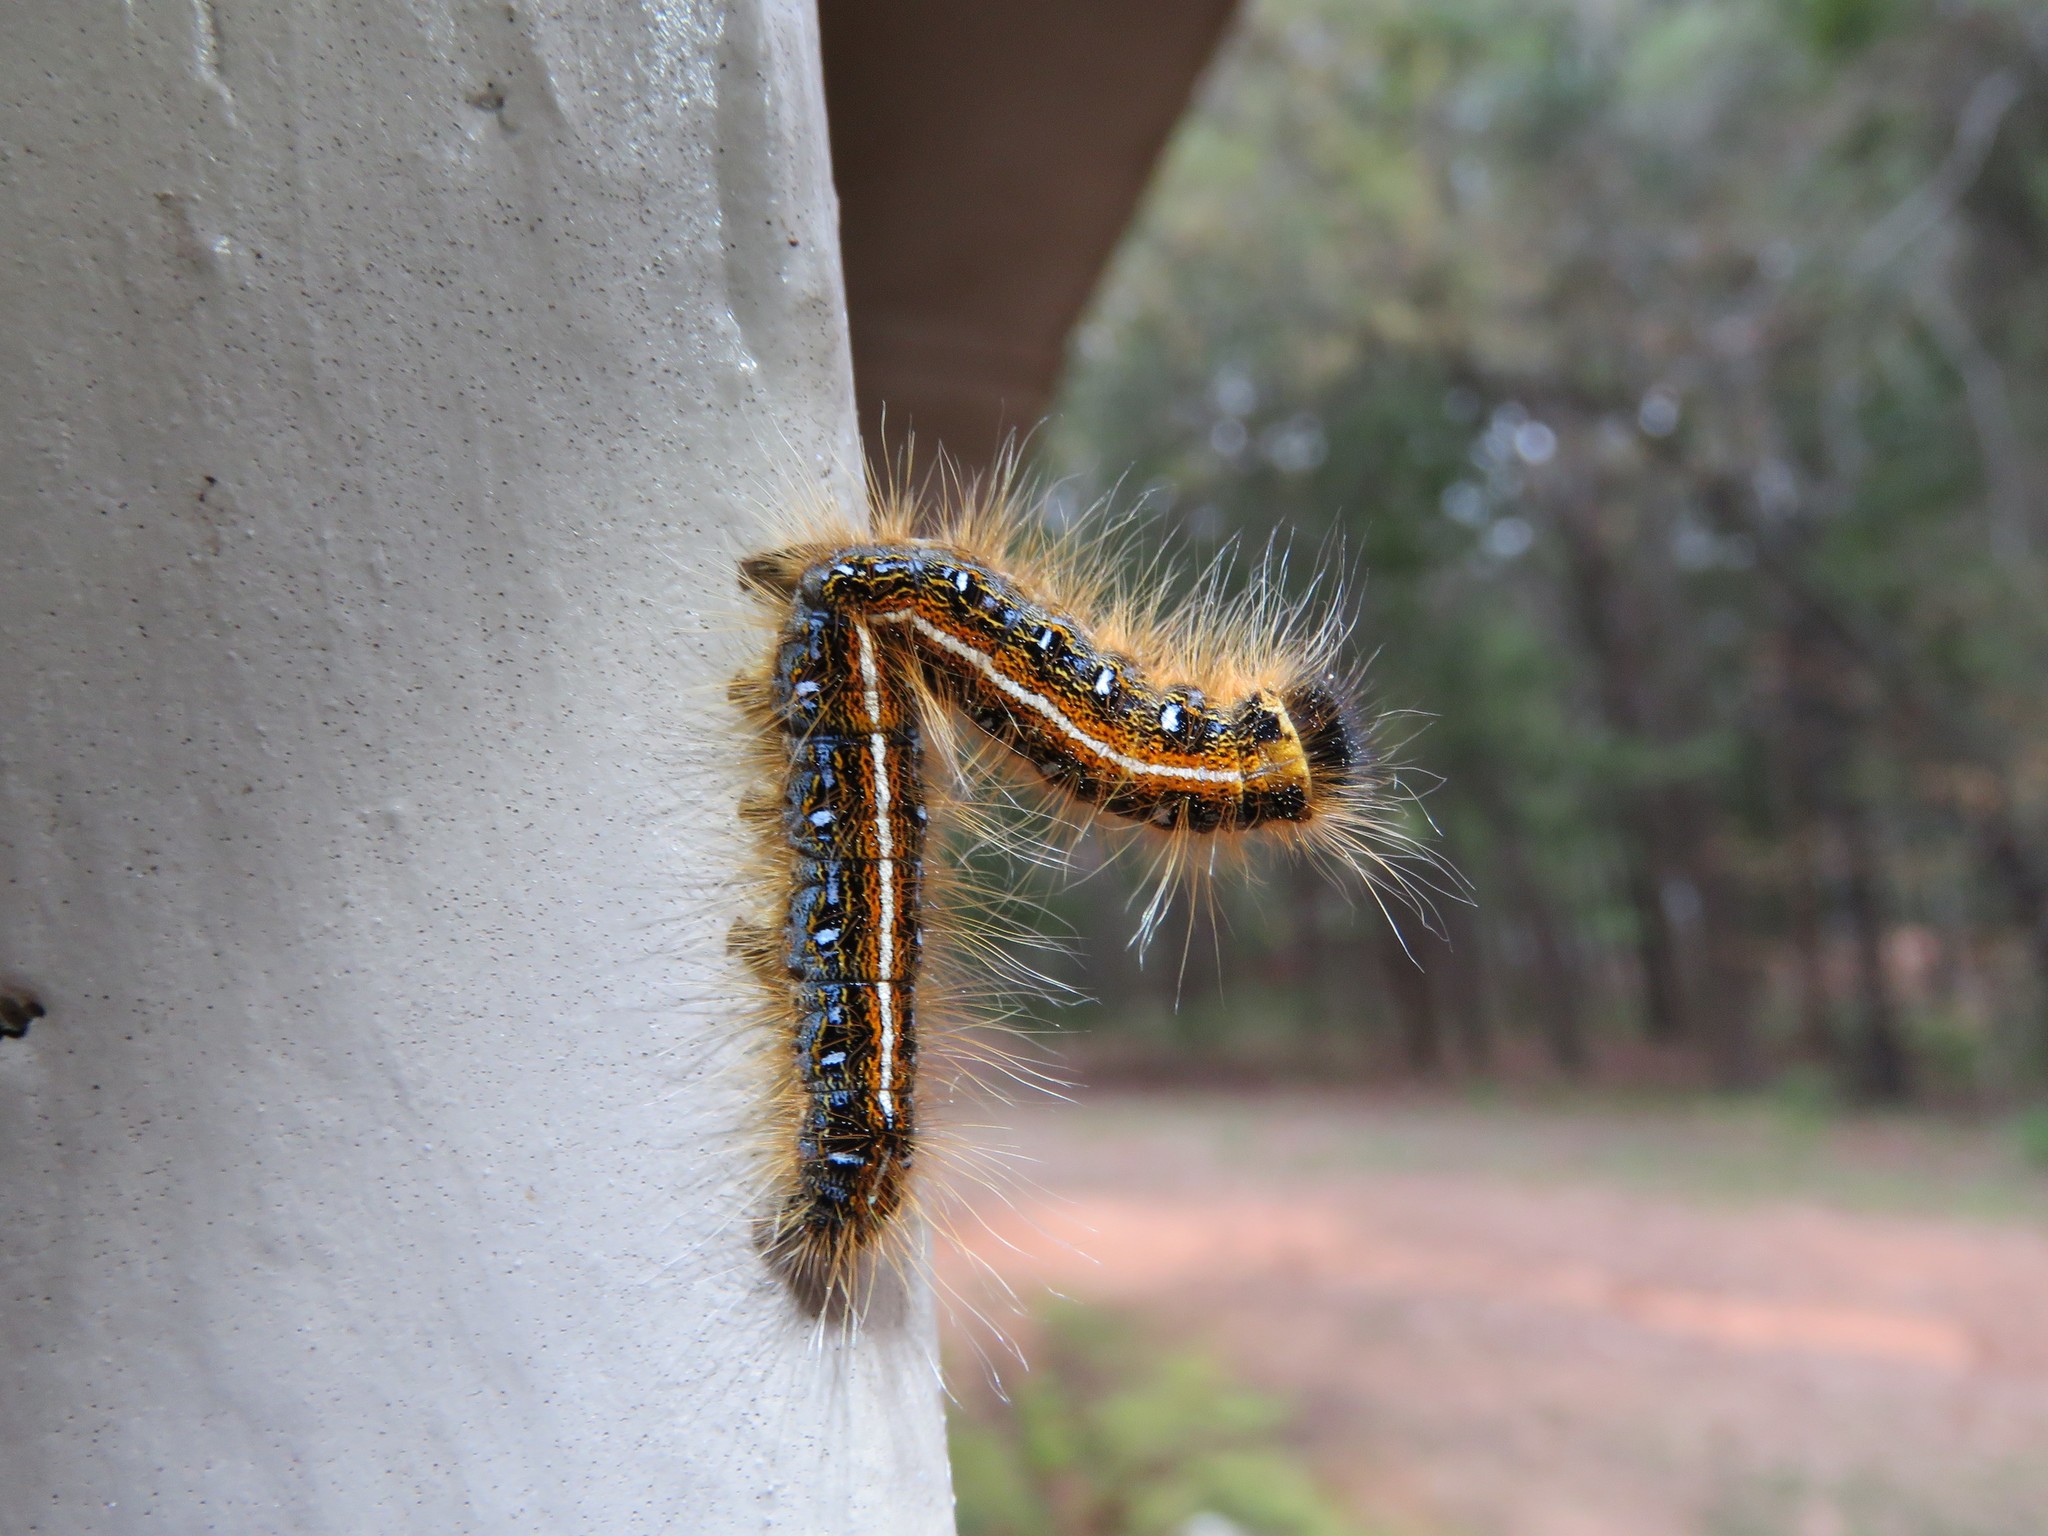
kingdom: Animalia
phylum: Arthropoda
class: Insecta
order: Lepidoptera
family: Lasiocampidae
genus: Malacosoma
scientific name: Malacosoma americana
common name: Eastern tent caterpillar moth
